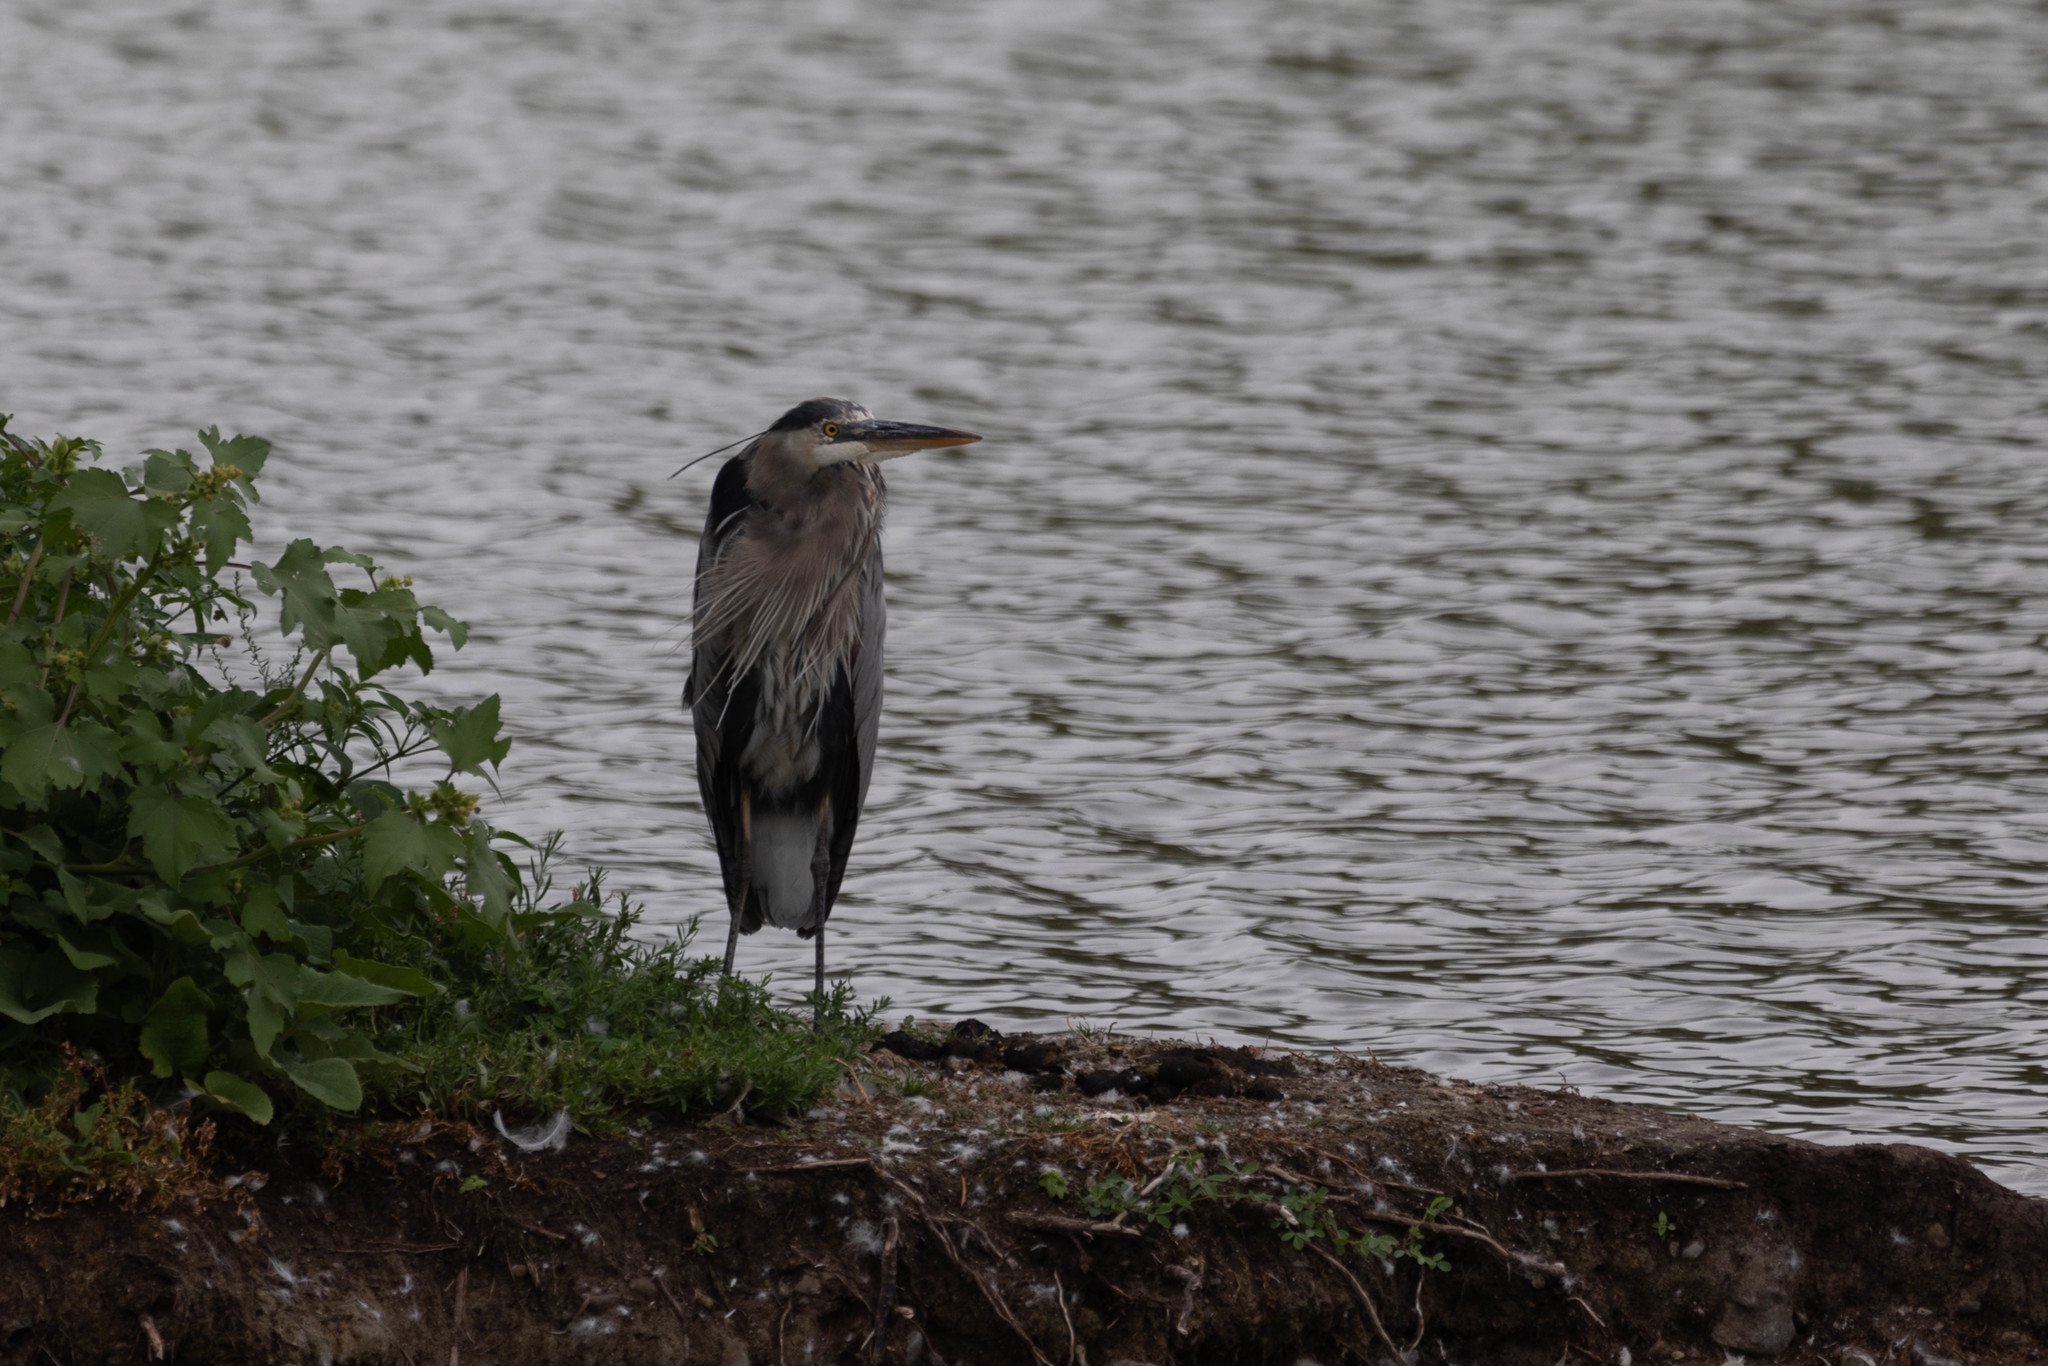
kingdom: Animalia
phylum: Chordata
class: Aves
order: Pelecaniformes
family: Ardeidae
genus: Ardea
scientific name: Ardea herodias
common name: Great blue heron
